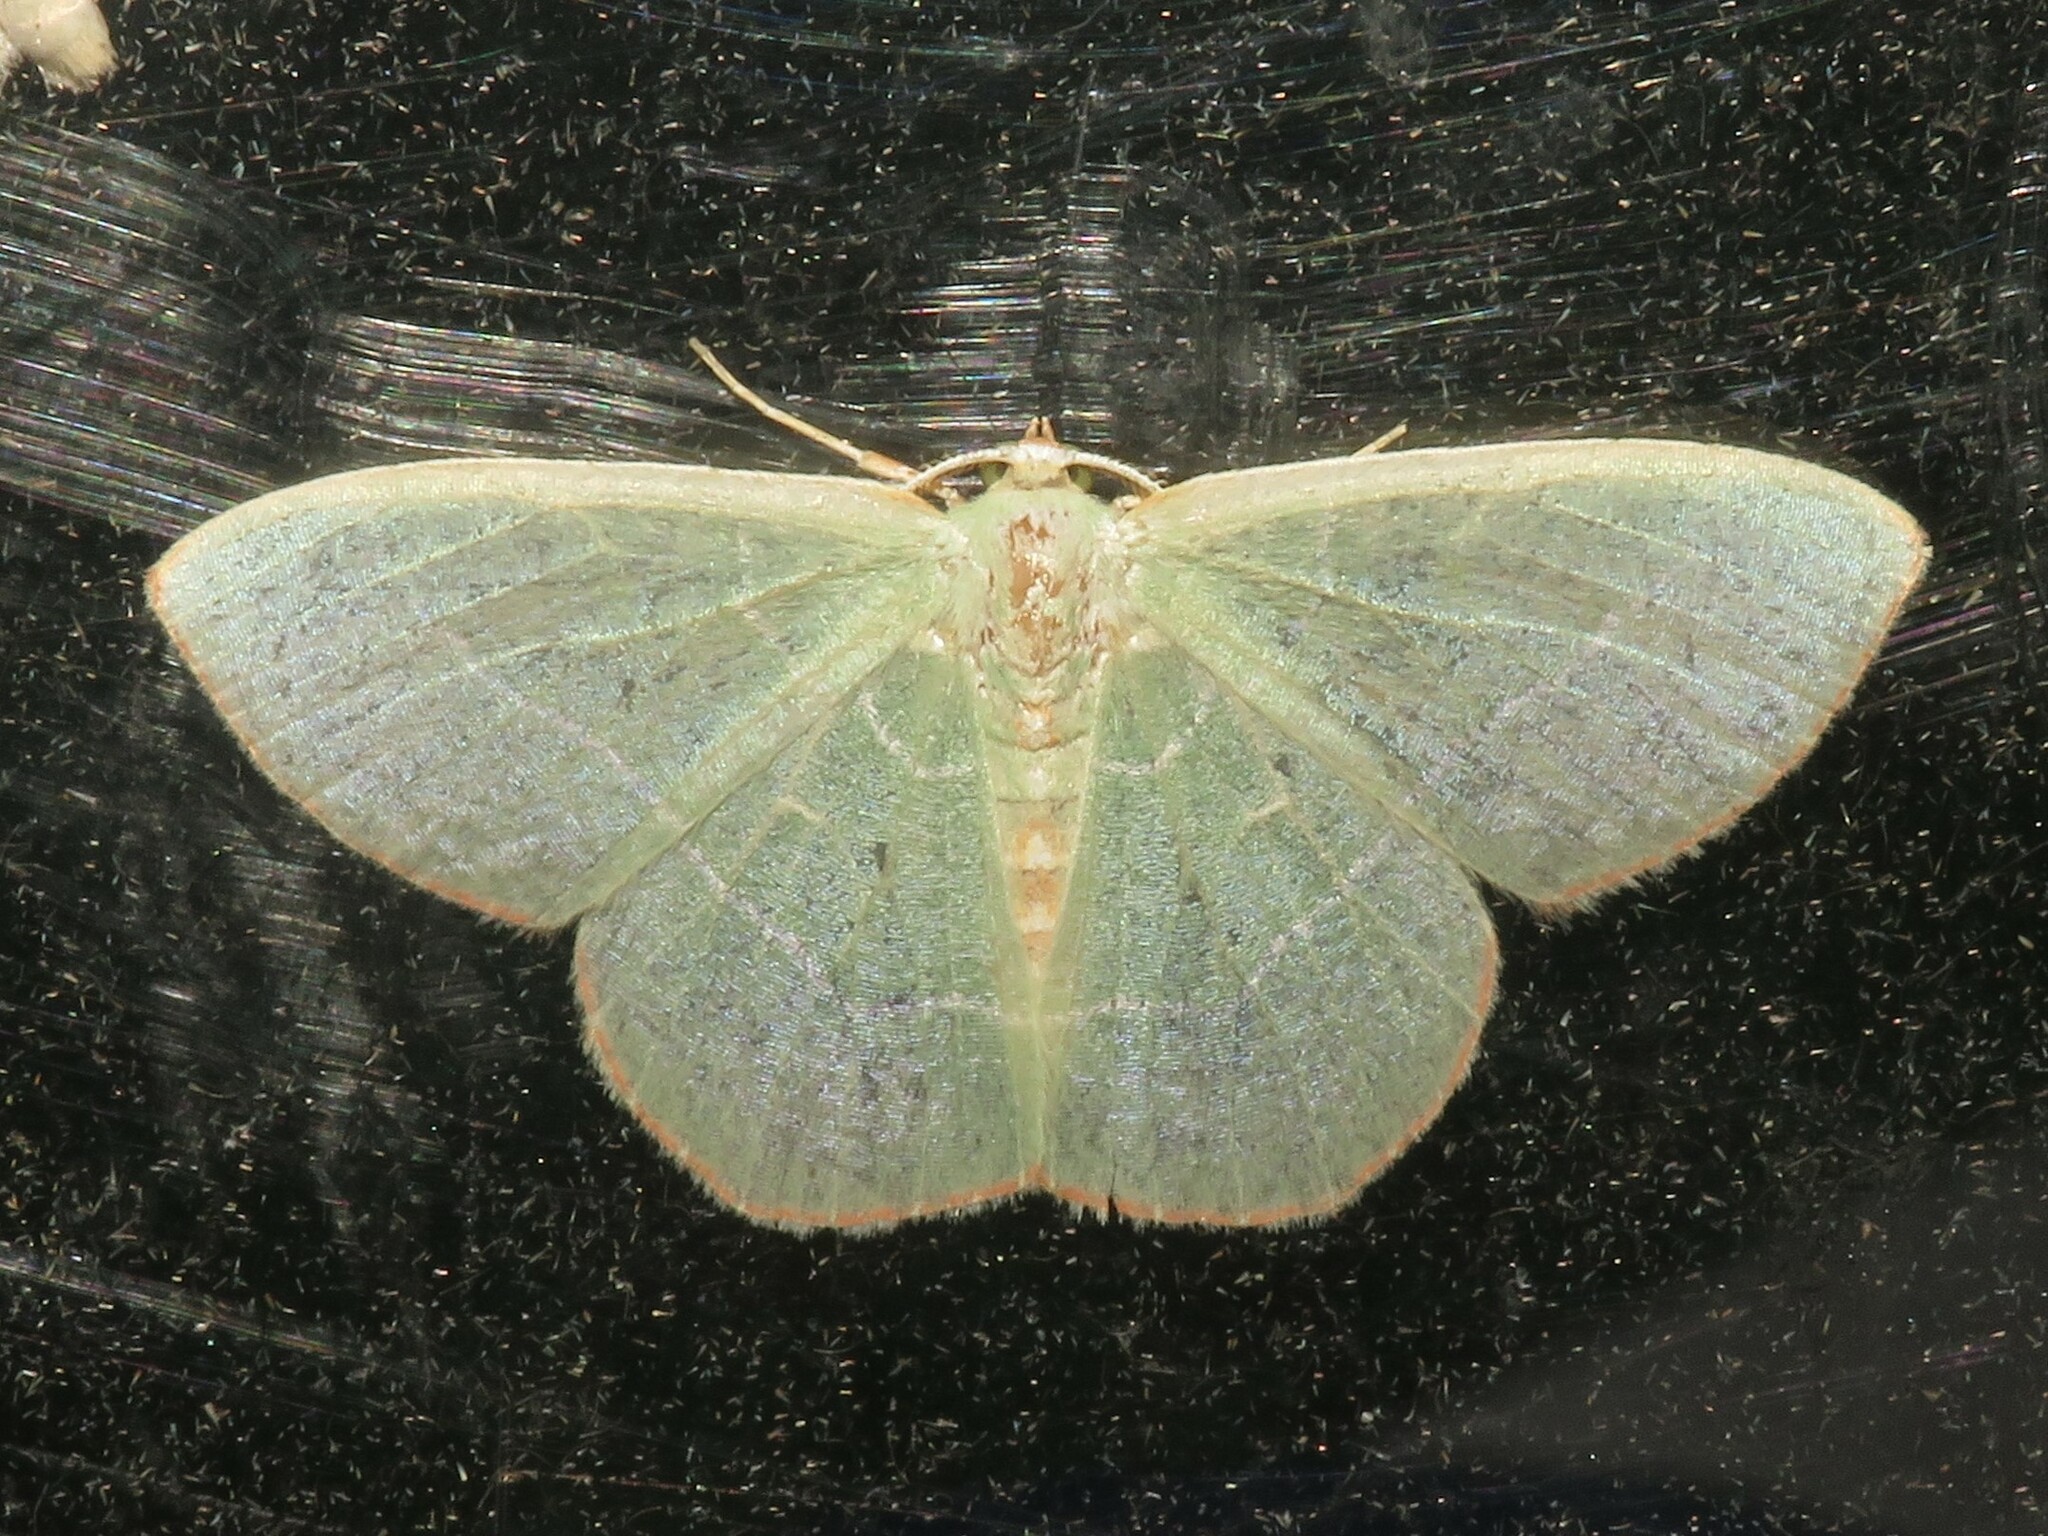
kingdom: Animalia
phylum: Arthropoda
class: Insecta
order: Lepidoptera
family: Geometridae
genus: Nemoria
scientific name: Nemoria bistriaria
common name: Red-fringed emerald
